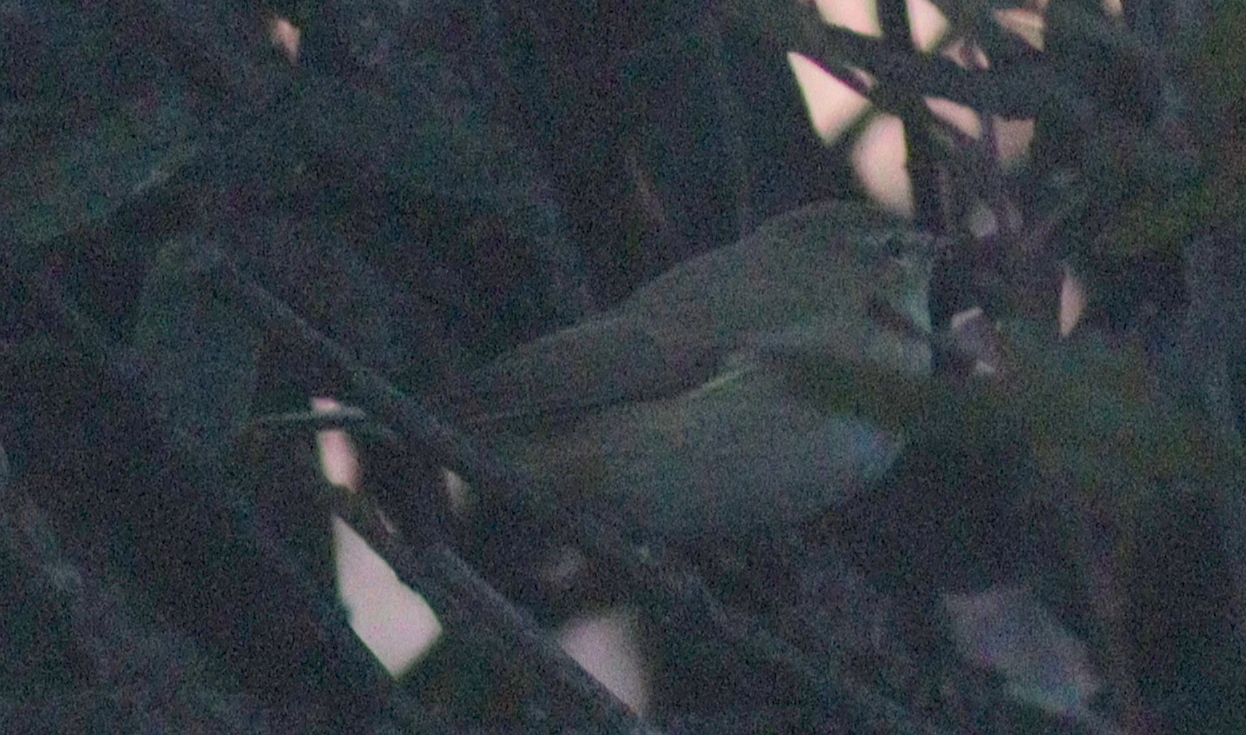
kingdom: Animalia
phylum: Chordata
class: Aves
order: Passeriformes
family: Phylloscopidae
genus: Phylloscopus
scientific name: Phylloscopus collybita
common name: Common chiffchaff
